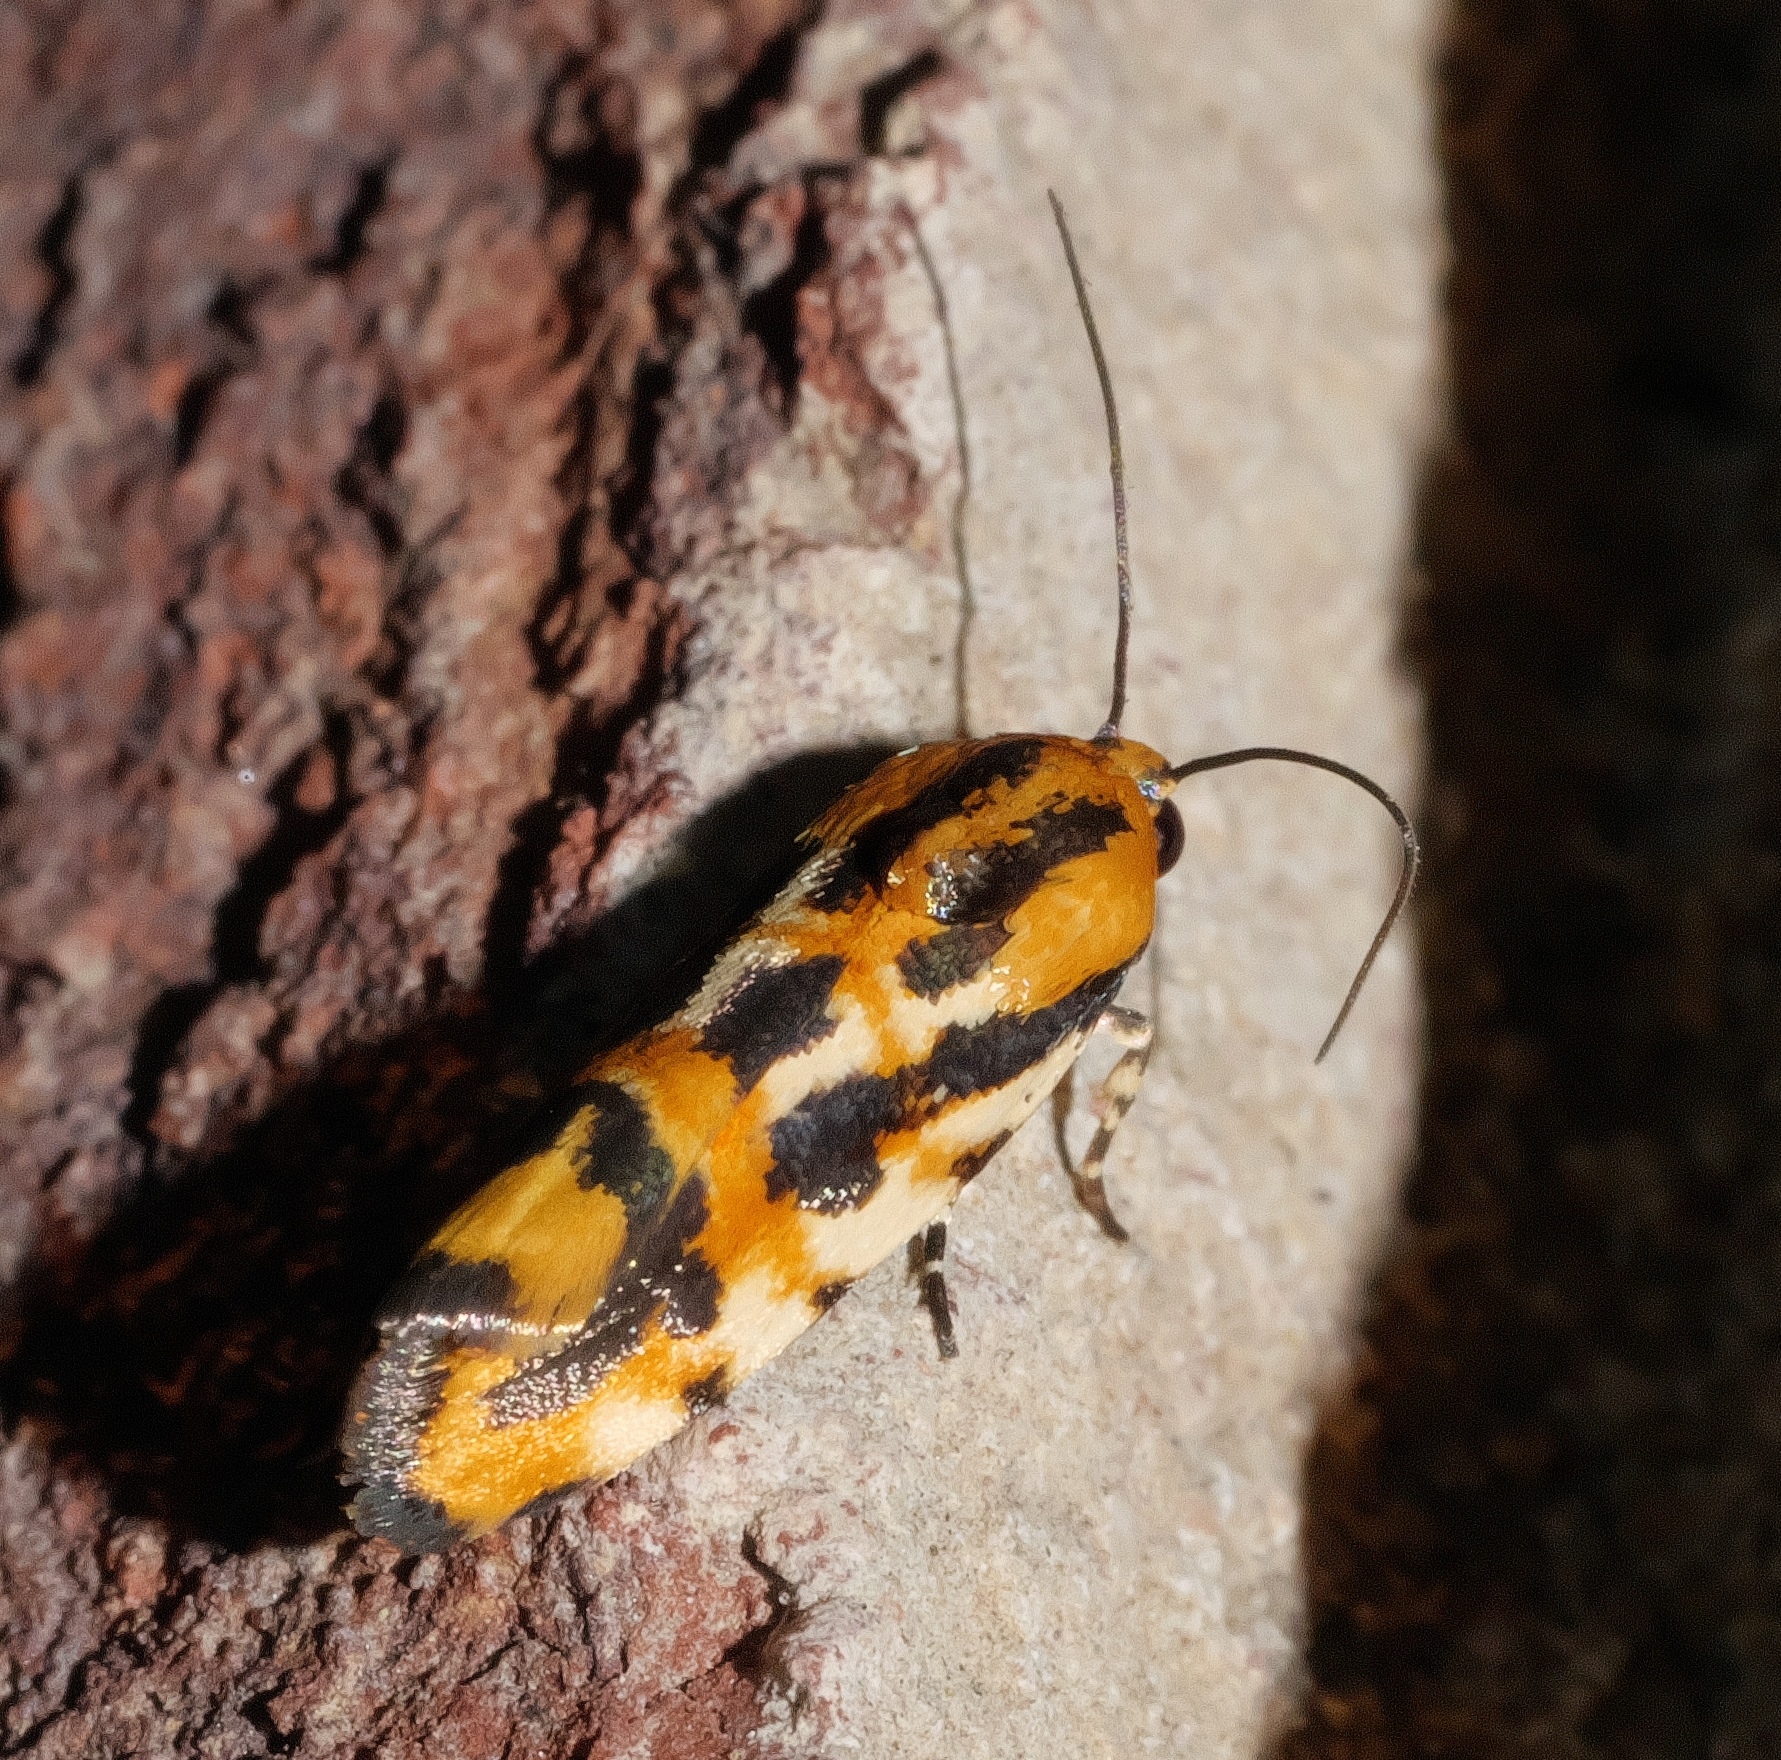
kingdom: Animalia
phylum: Arthropoda
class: Insecta
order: Lepidoptera
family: Noctuidae
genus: Acontia
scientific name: Acontia leo
